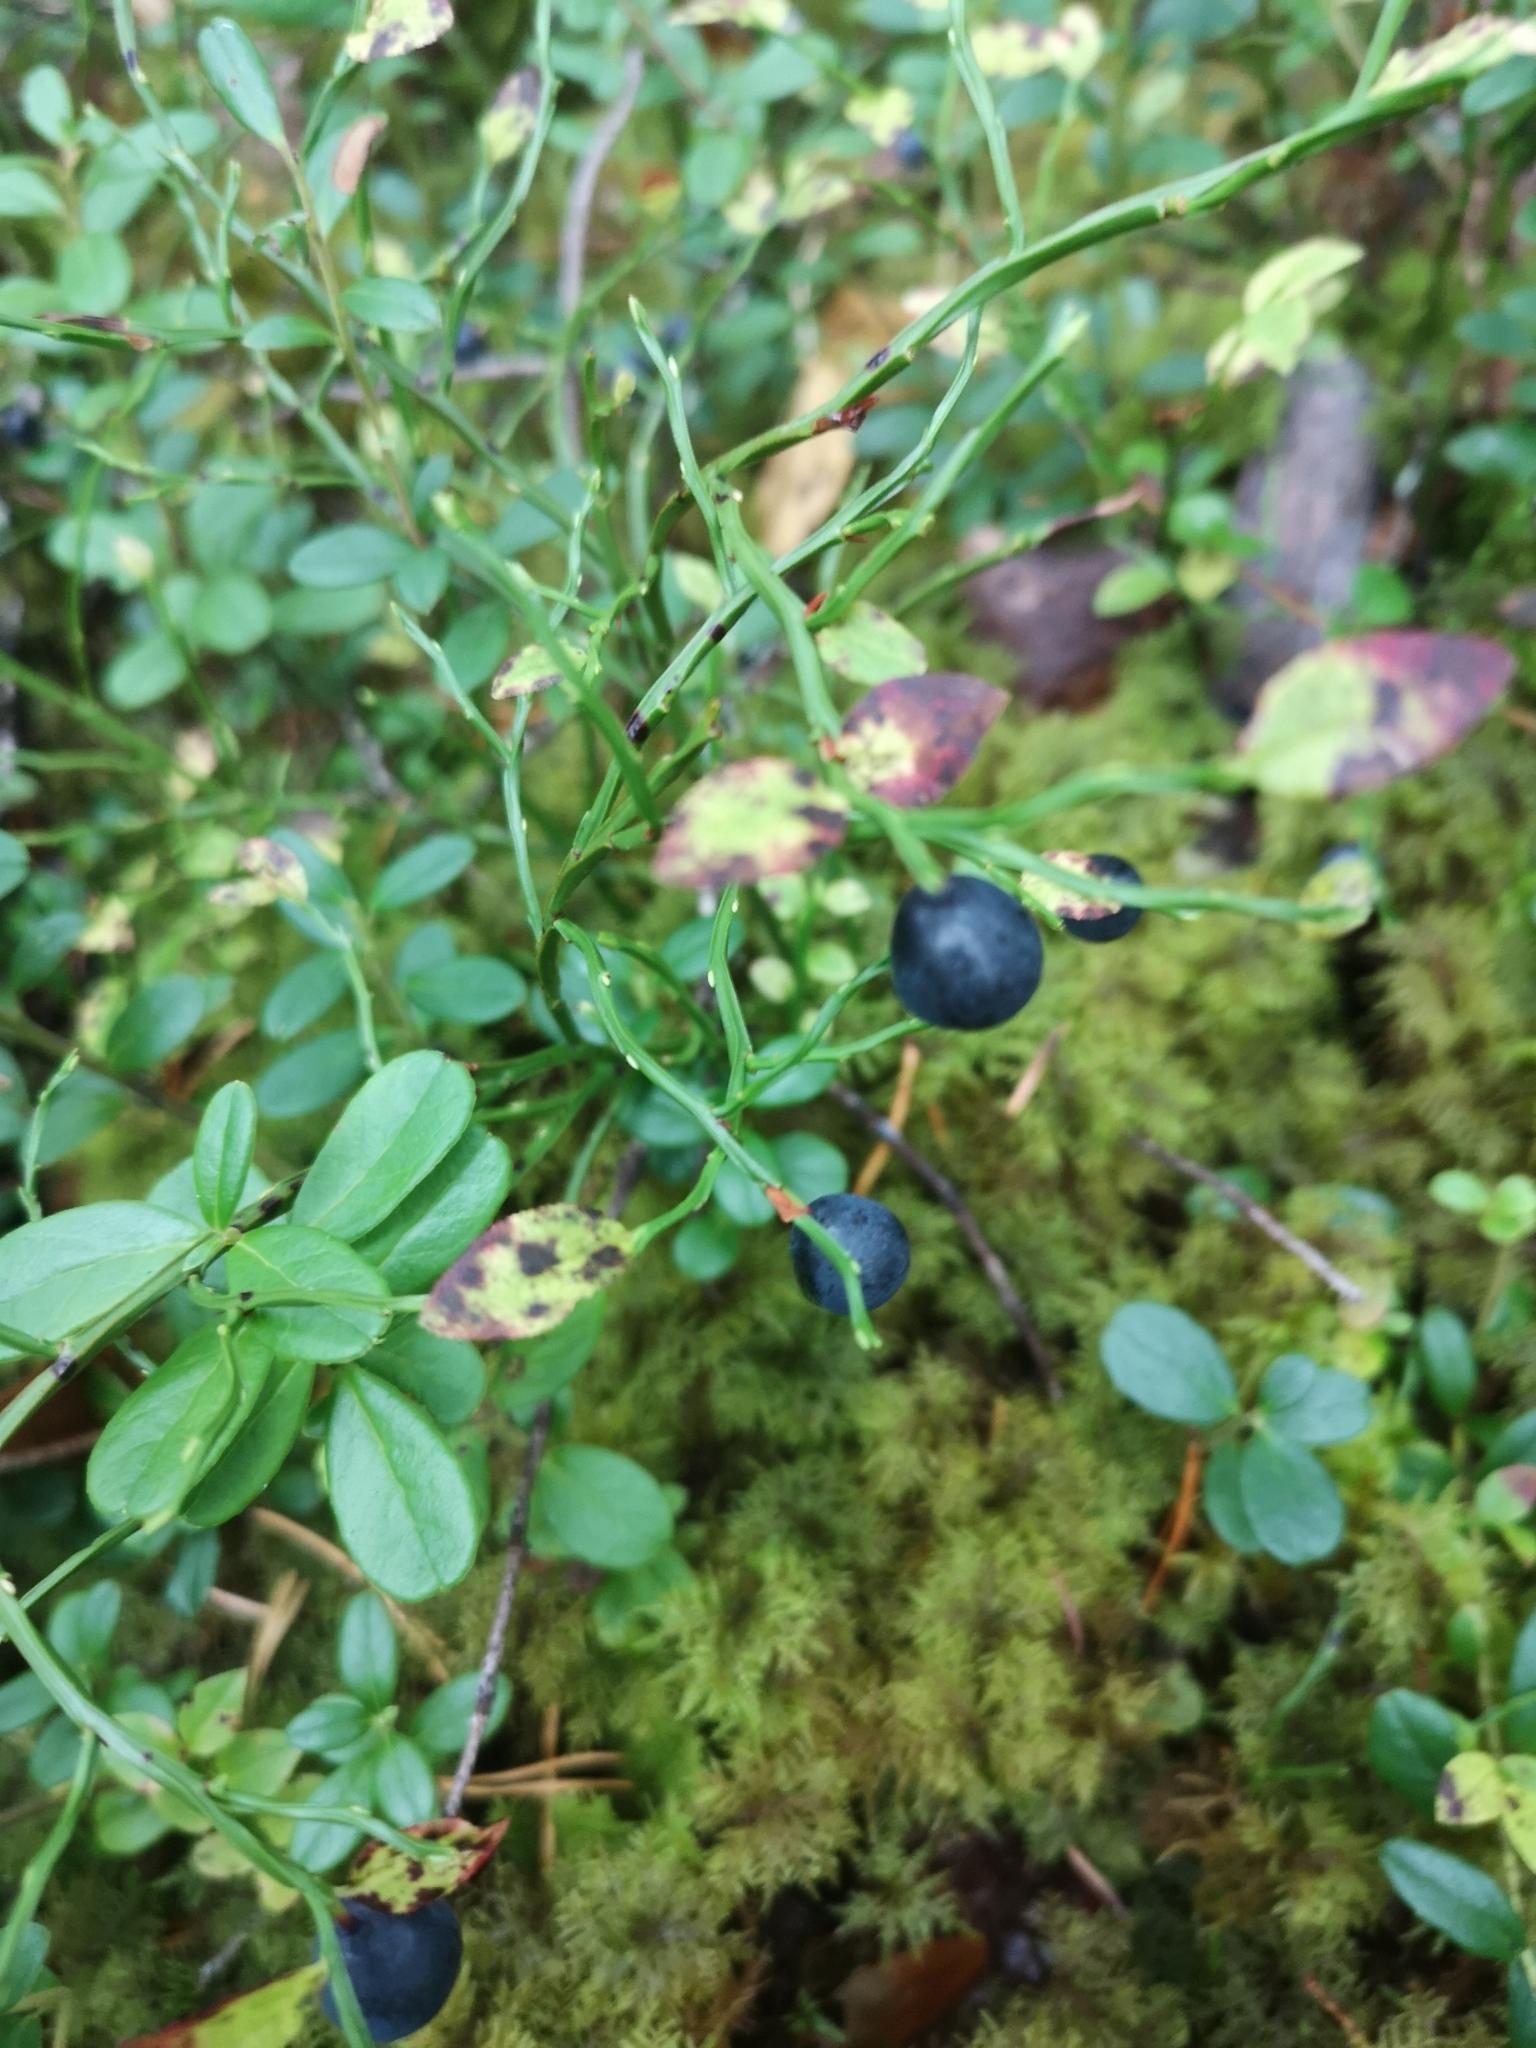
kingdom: Plantae
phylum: Tracheophyta
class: Magnoliopsida
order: Ericales
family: Ericaceae
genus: Vaccinium
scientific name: Vaccinium myrtillus
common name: Bilberry
